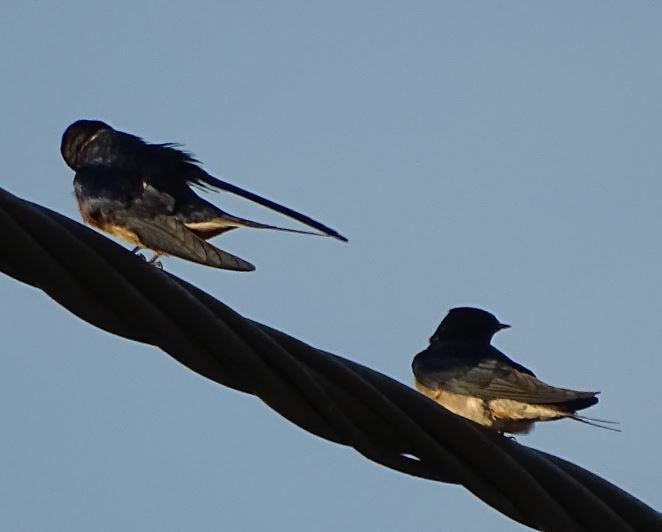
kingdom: Animalia
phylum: Chordata
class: Aves
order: Passeriformes
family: Hirundinidae
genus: Hirundo
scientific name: Hirundo rustica
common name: Barn swallow
